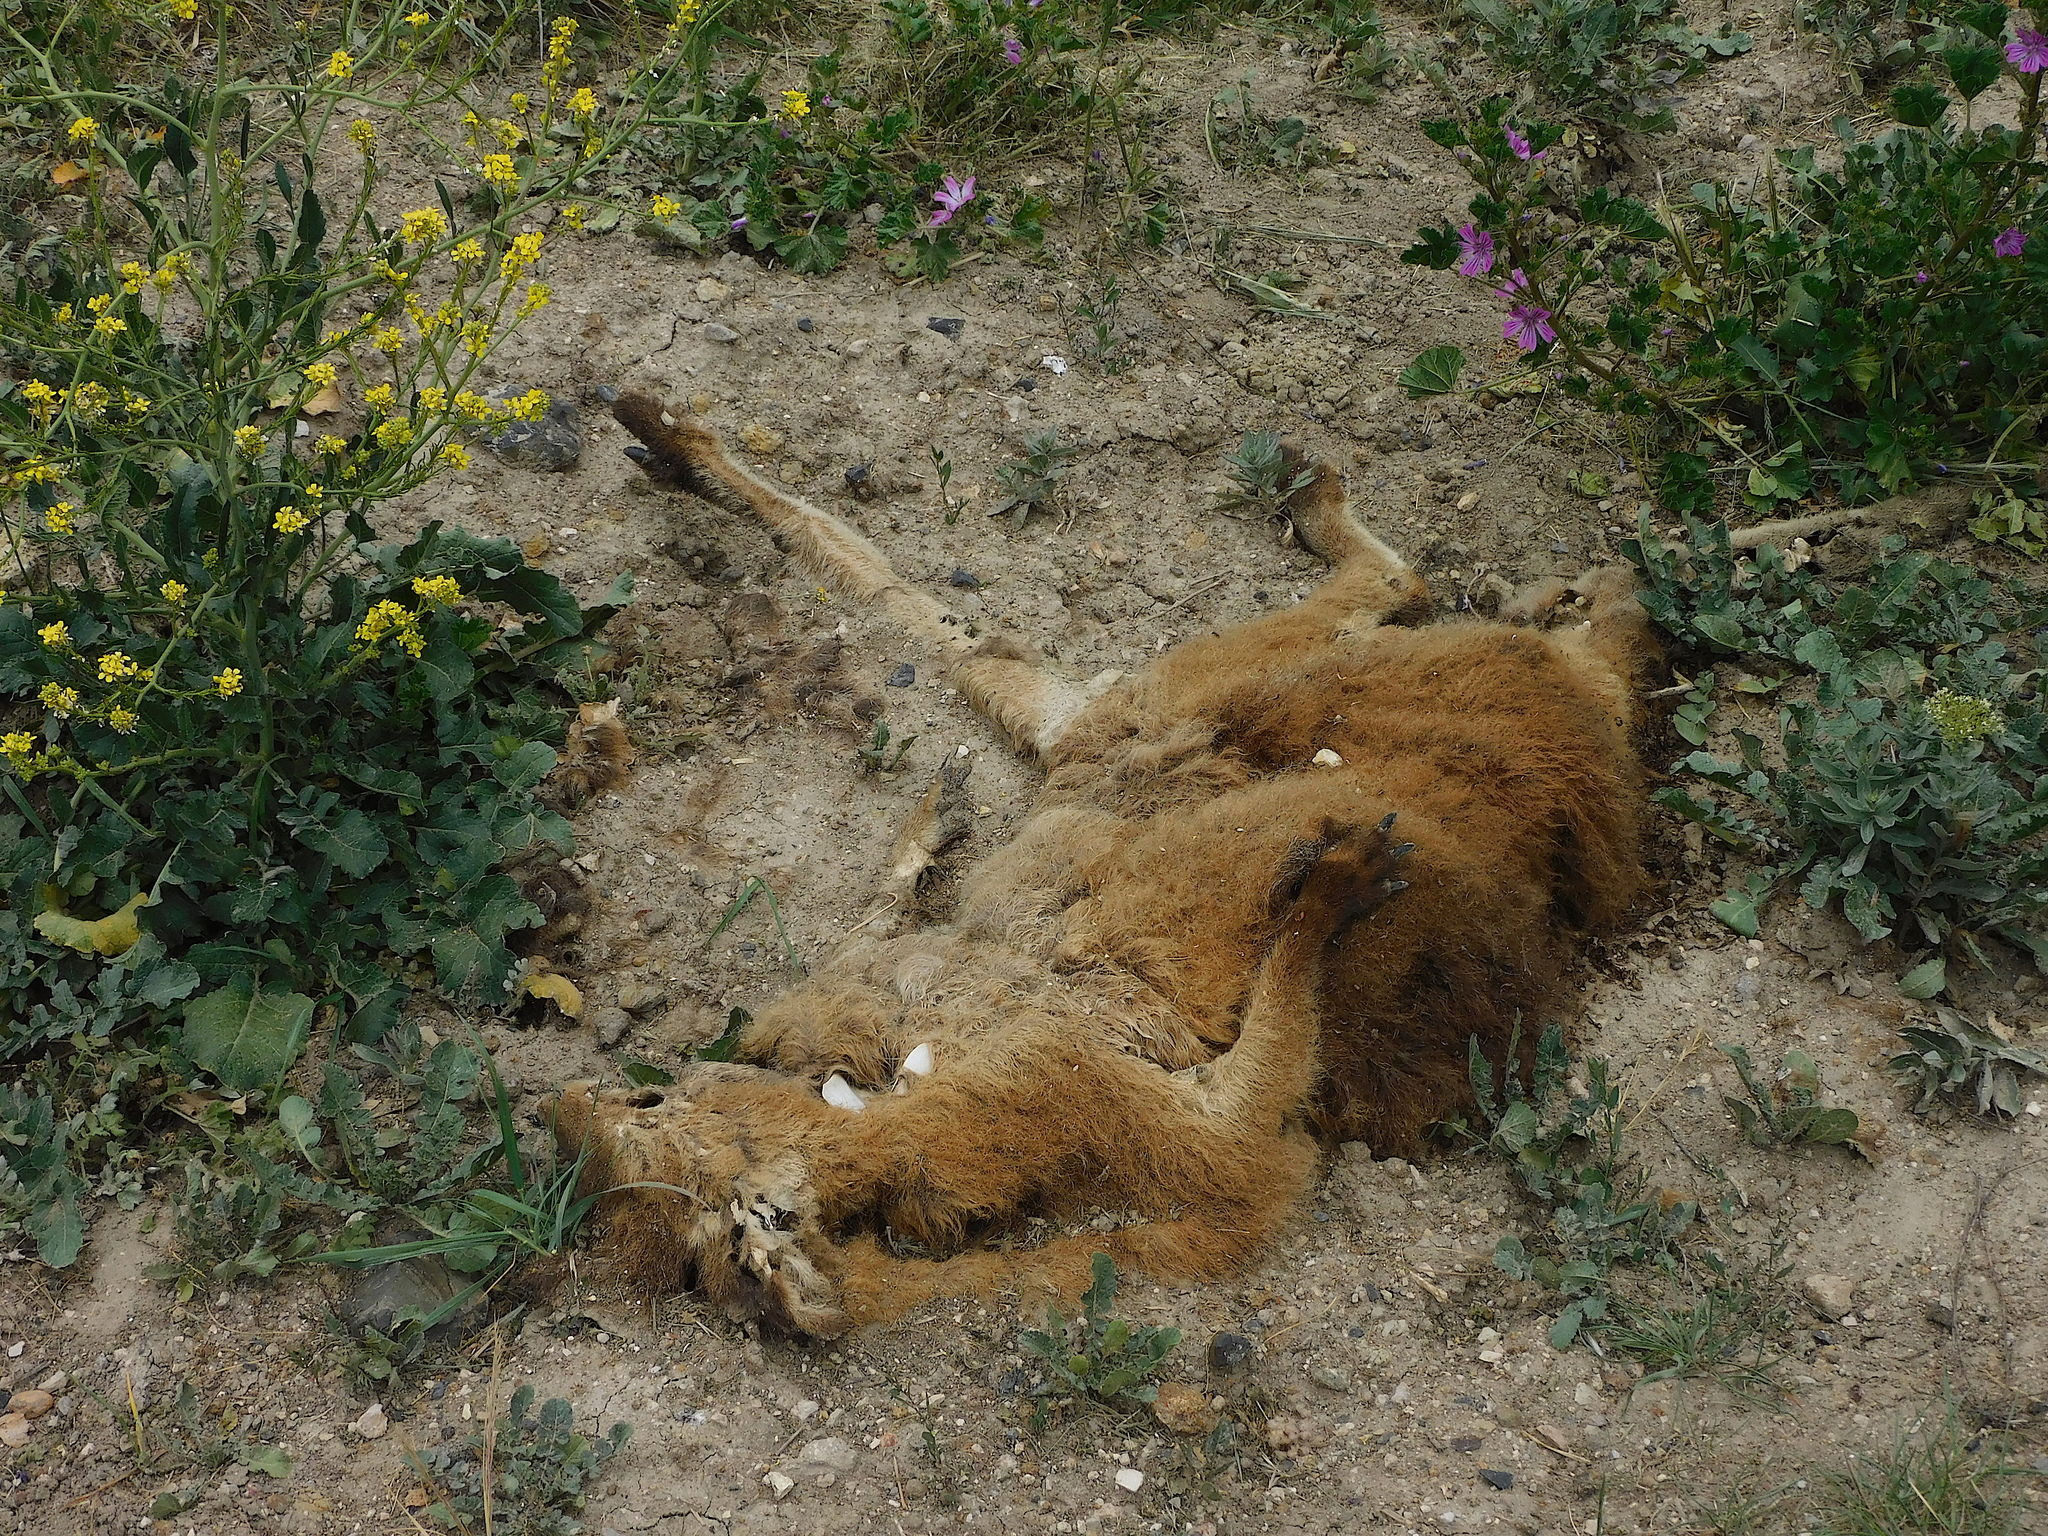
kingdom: Animalia
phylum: Chordata
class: Mammalia
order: Diprotodontia
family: Macropodidae
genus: Notamacropus
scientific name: Notamacropus rufogriseus
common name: Red-necked wallaby
